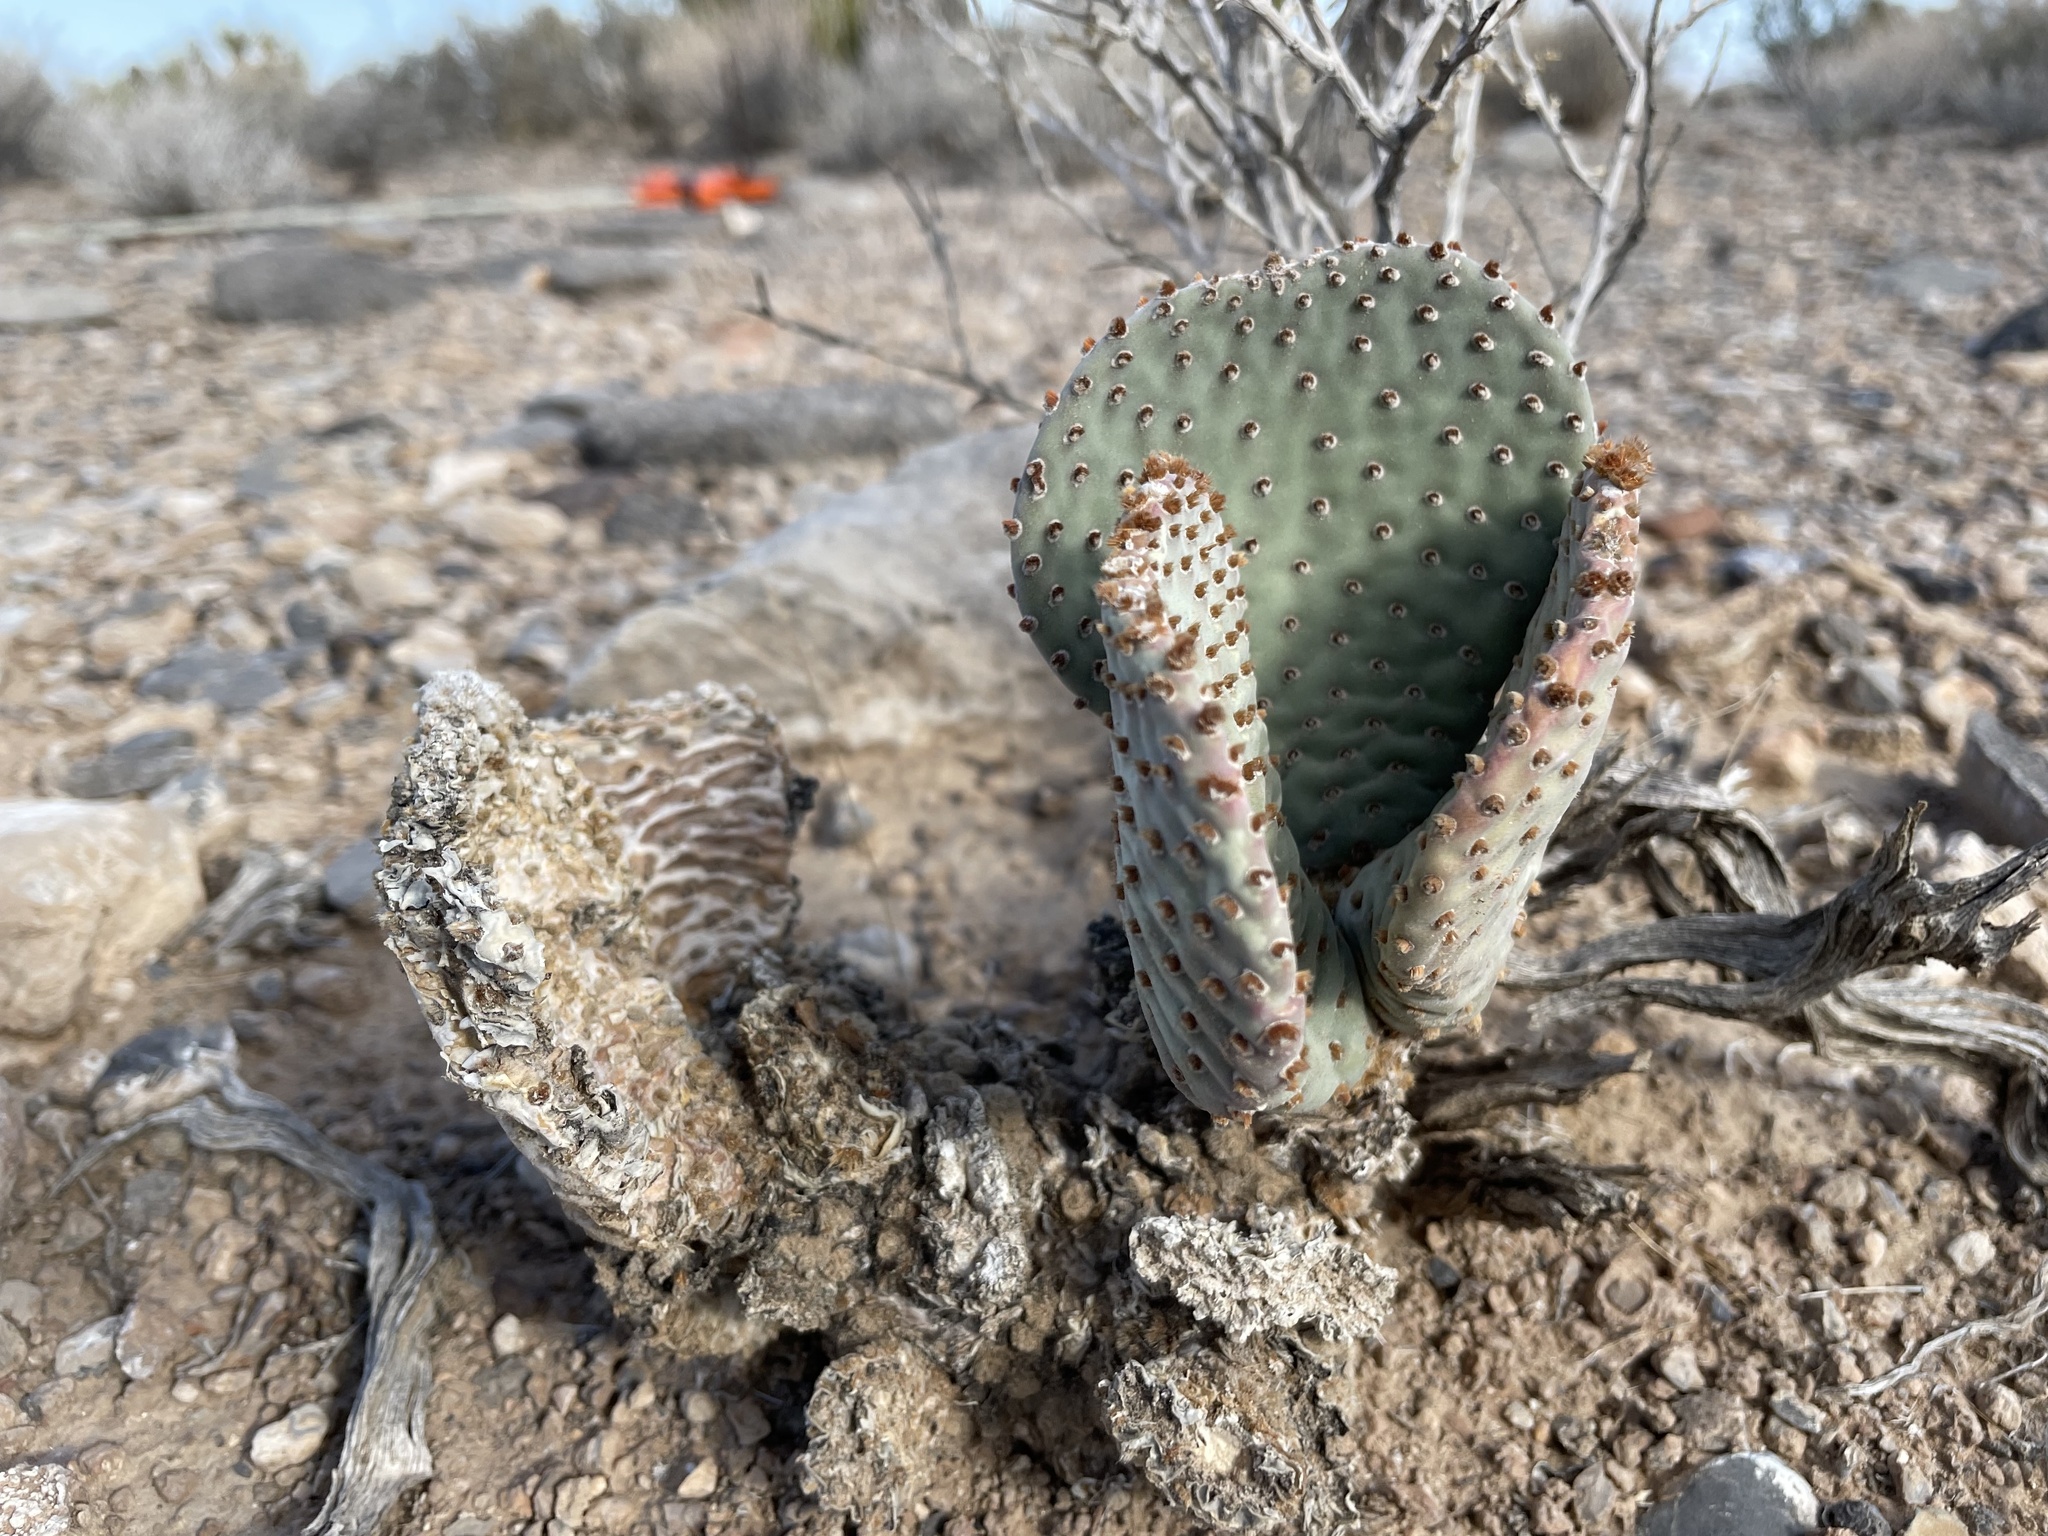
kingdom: Plantae
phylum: Tracheophyta
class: Magnoliopsida
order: Caryophyllales
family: Cactaceae
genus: Opuntia
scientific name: Opuntia basilaris
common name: Beavertail prickly-pear
